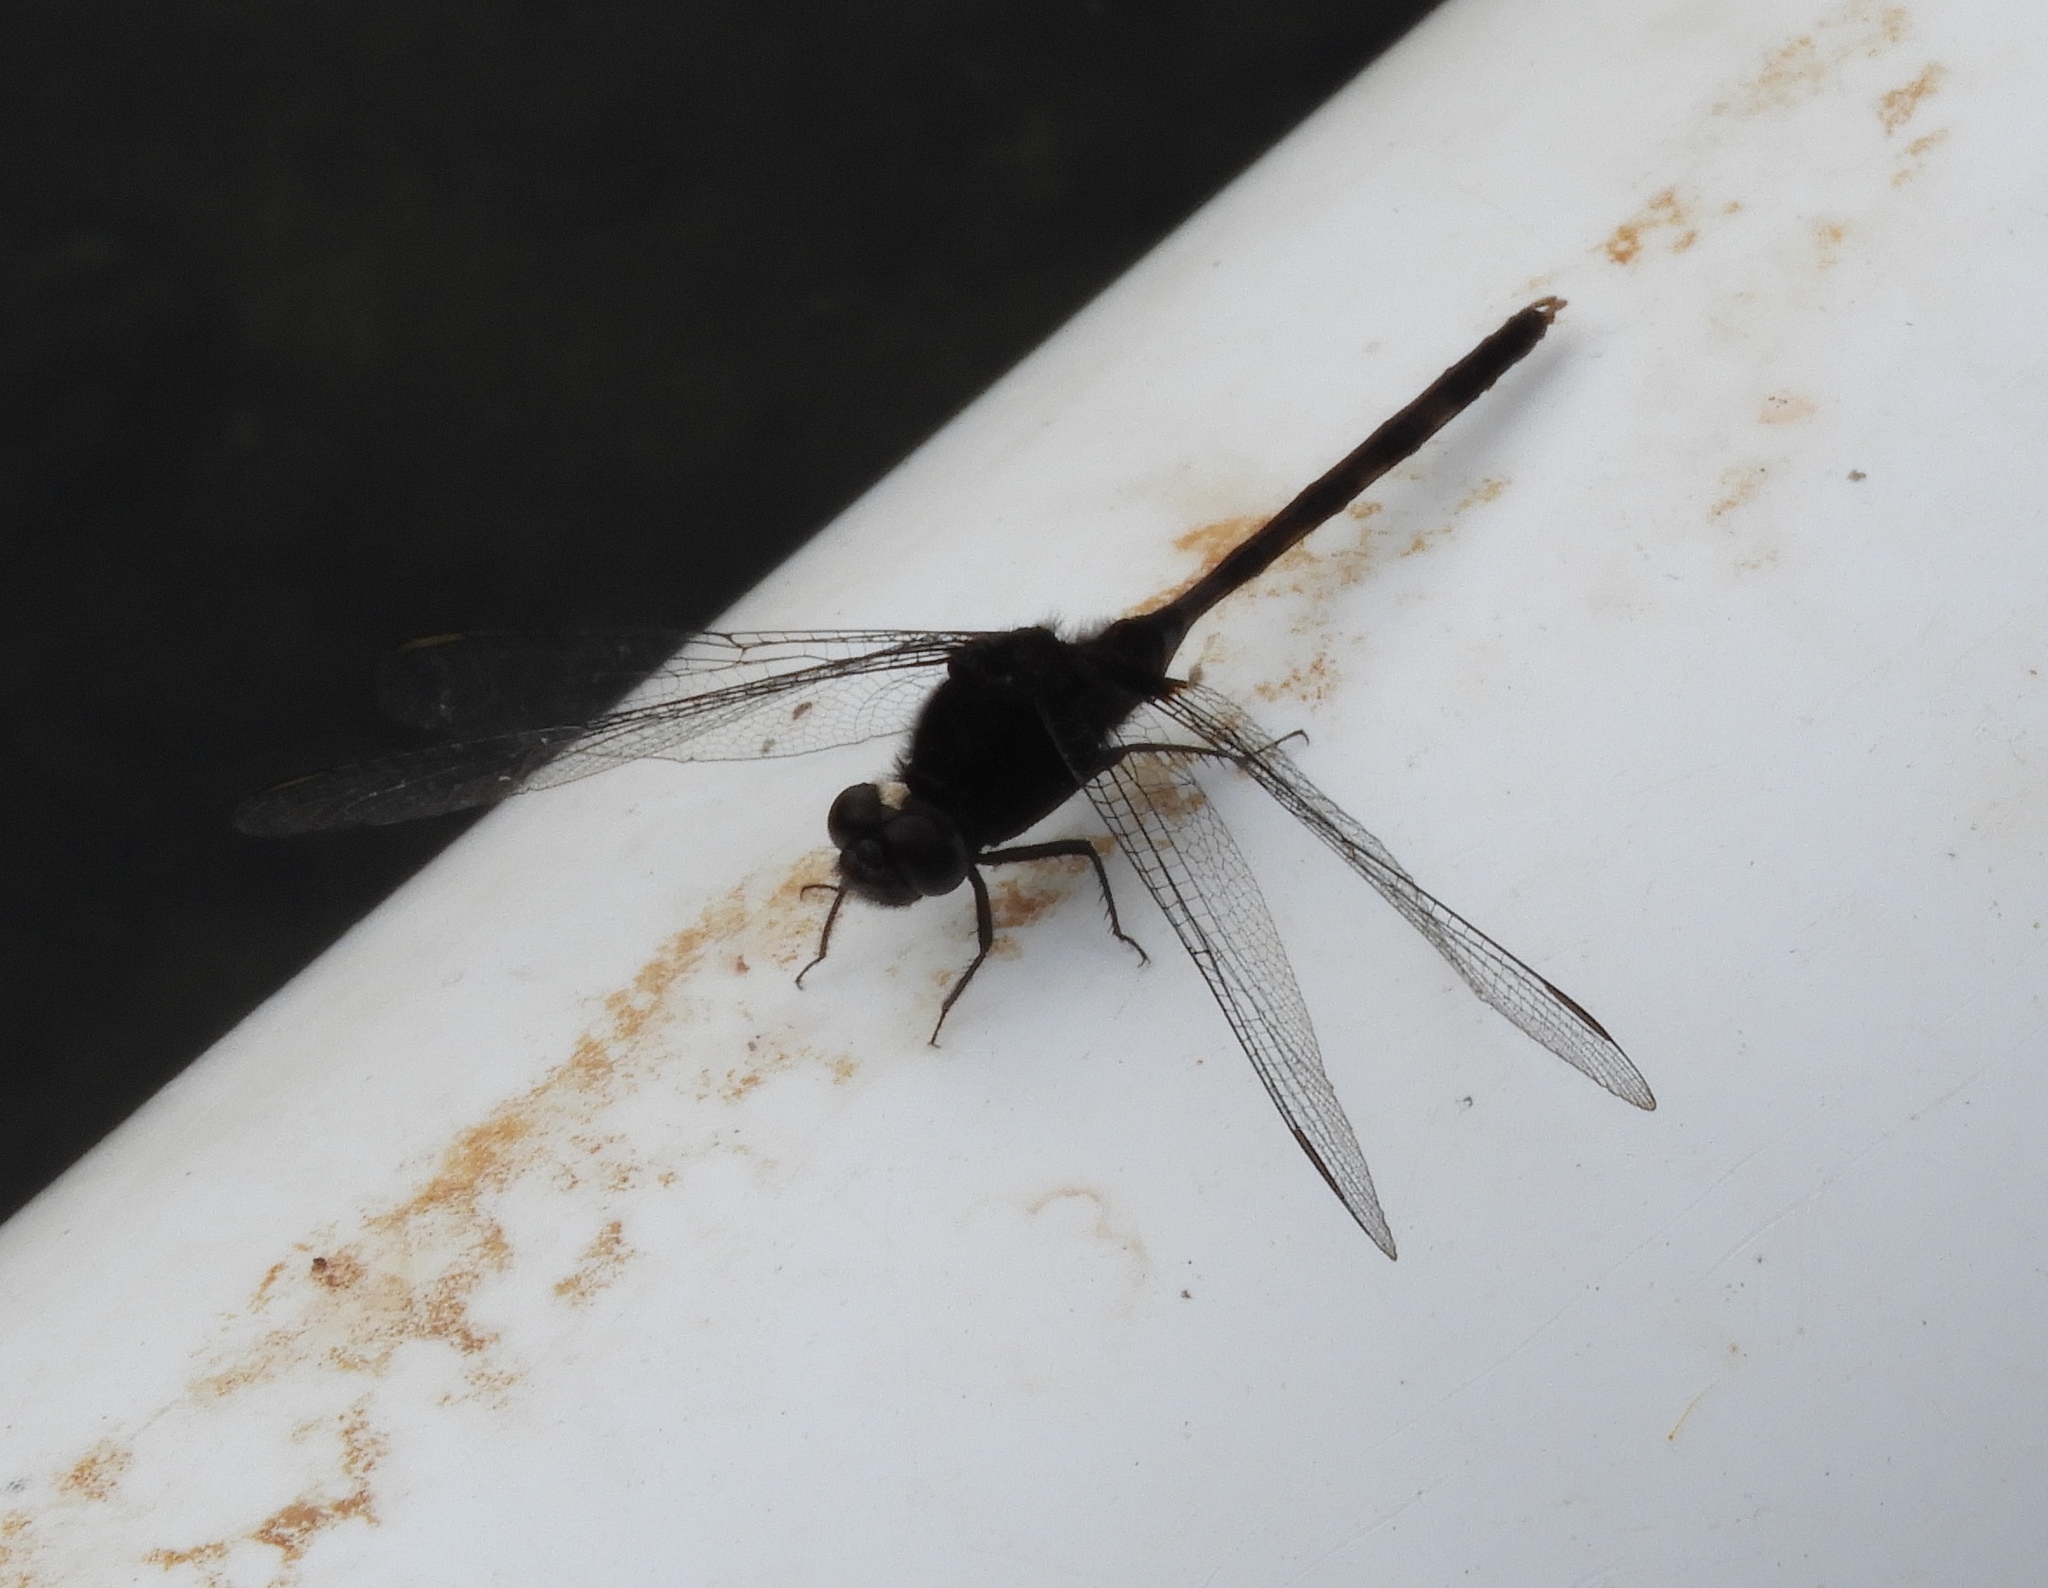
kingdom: Animalia
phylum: Arthropoda
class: Insecta
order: Odonata
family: Libellulidae
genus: Erythemis
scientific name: Erythemis plebeja
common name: Pin-tailed pondhawk
